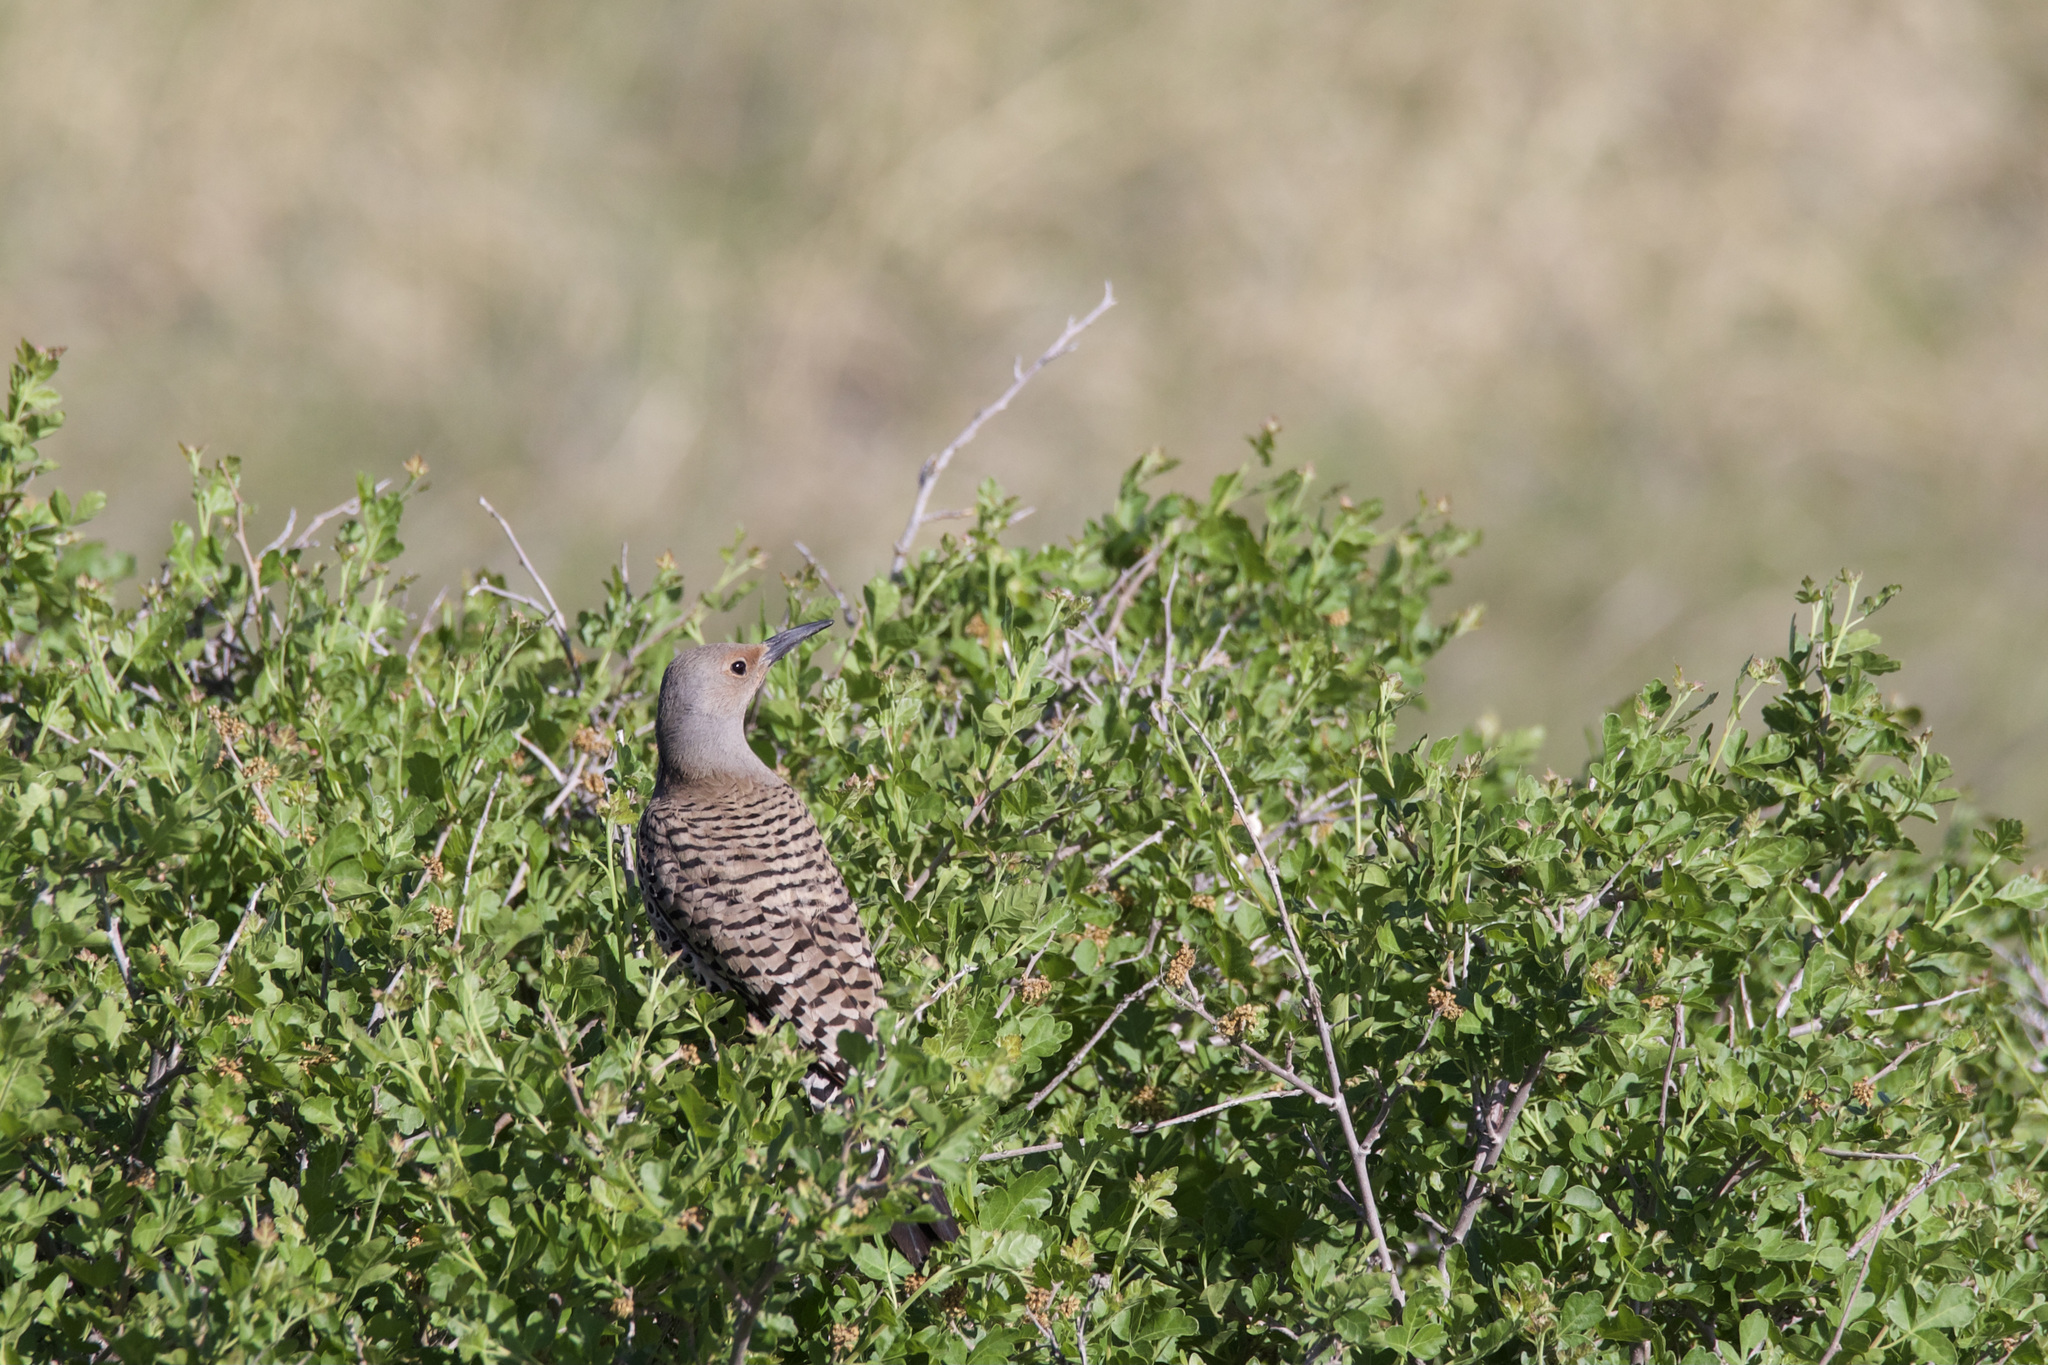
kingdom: Animalia
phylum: Chordata
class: Aves
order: Piciformes
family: Picidae
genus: Colaptes
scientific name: Colaptes auratus
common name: Northern flicker
